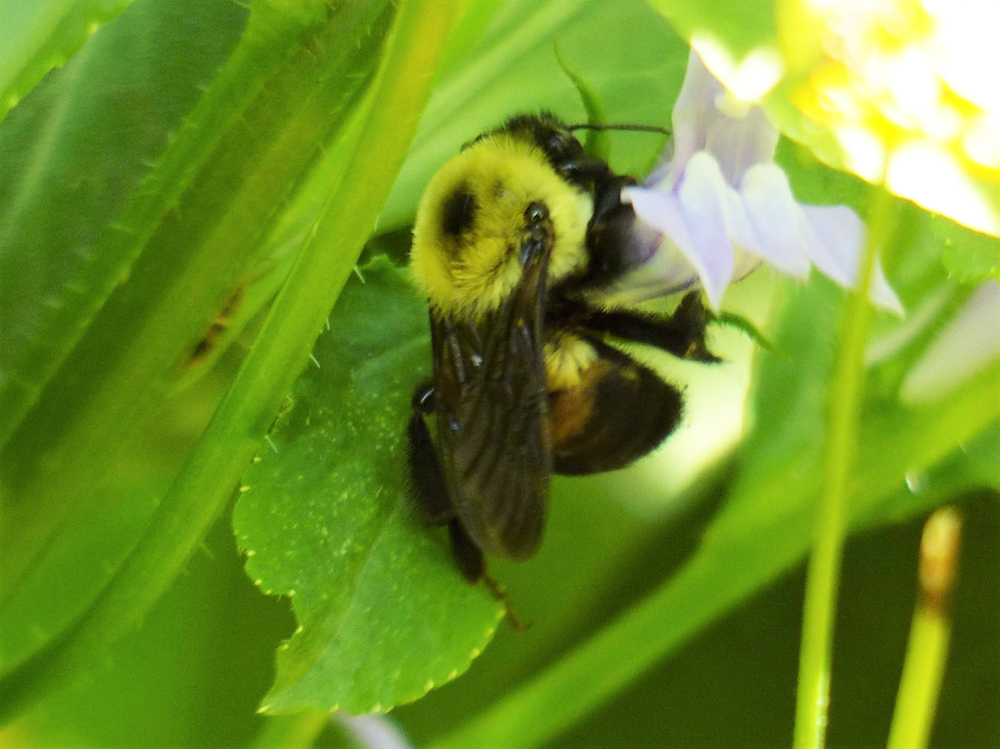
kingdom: Animalia
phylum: Arthropoda
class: Insecta
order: Hymenoptera
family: Apidae
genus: Bombus
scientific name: Bombus griseocollis
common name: Brown-belted bumble bee
